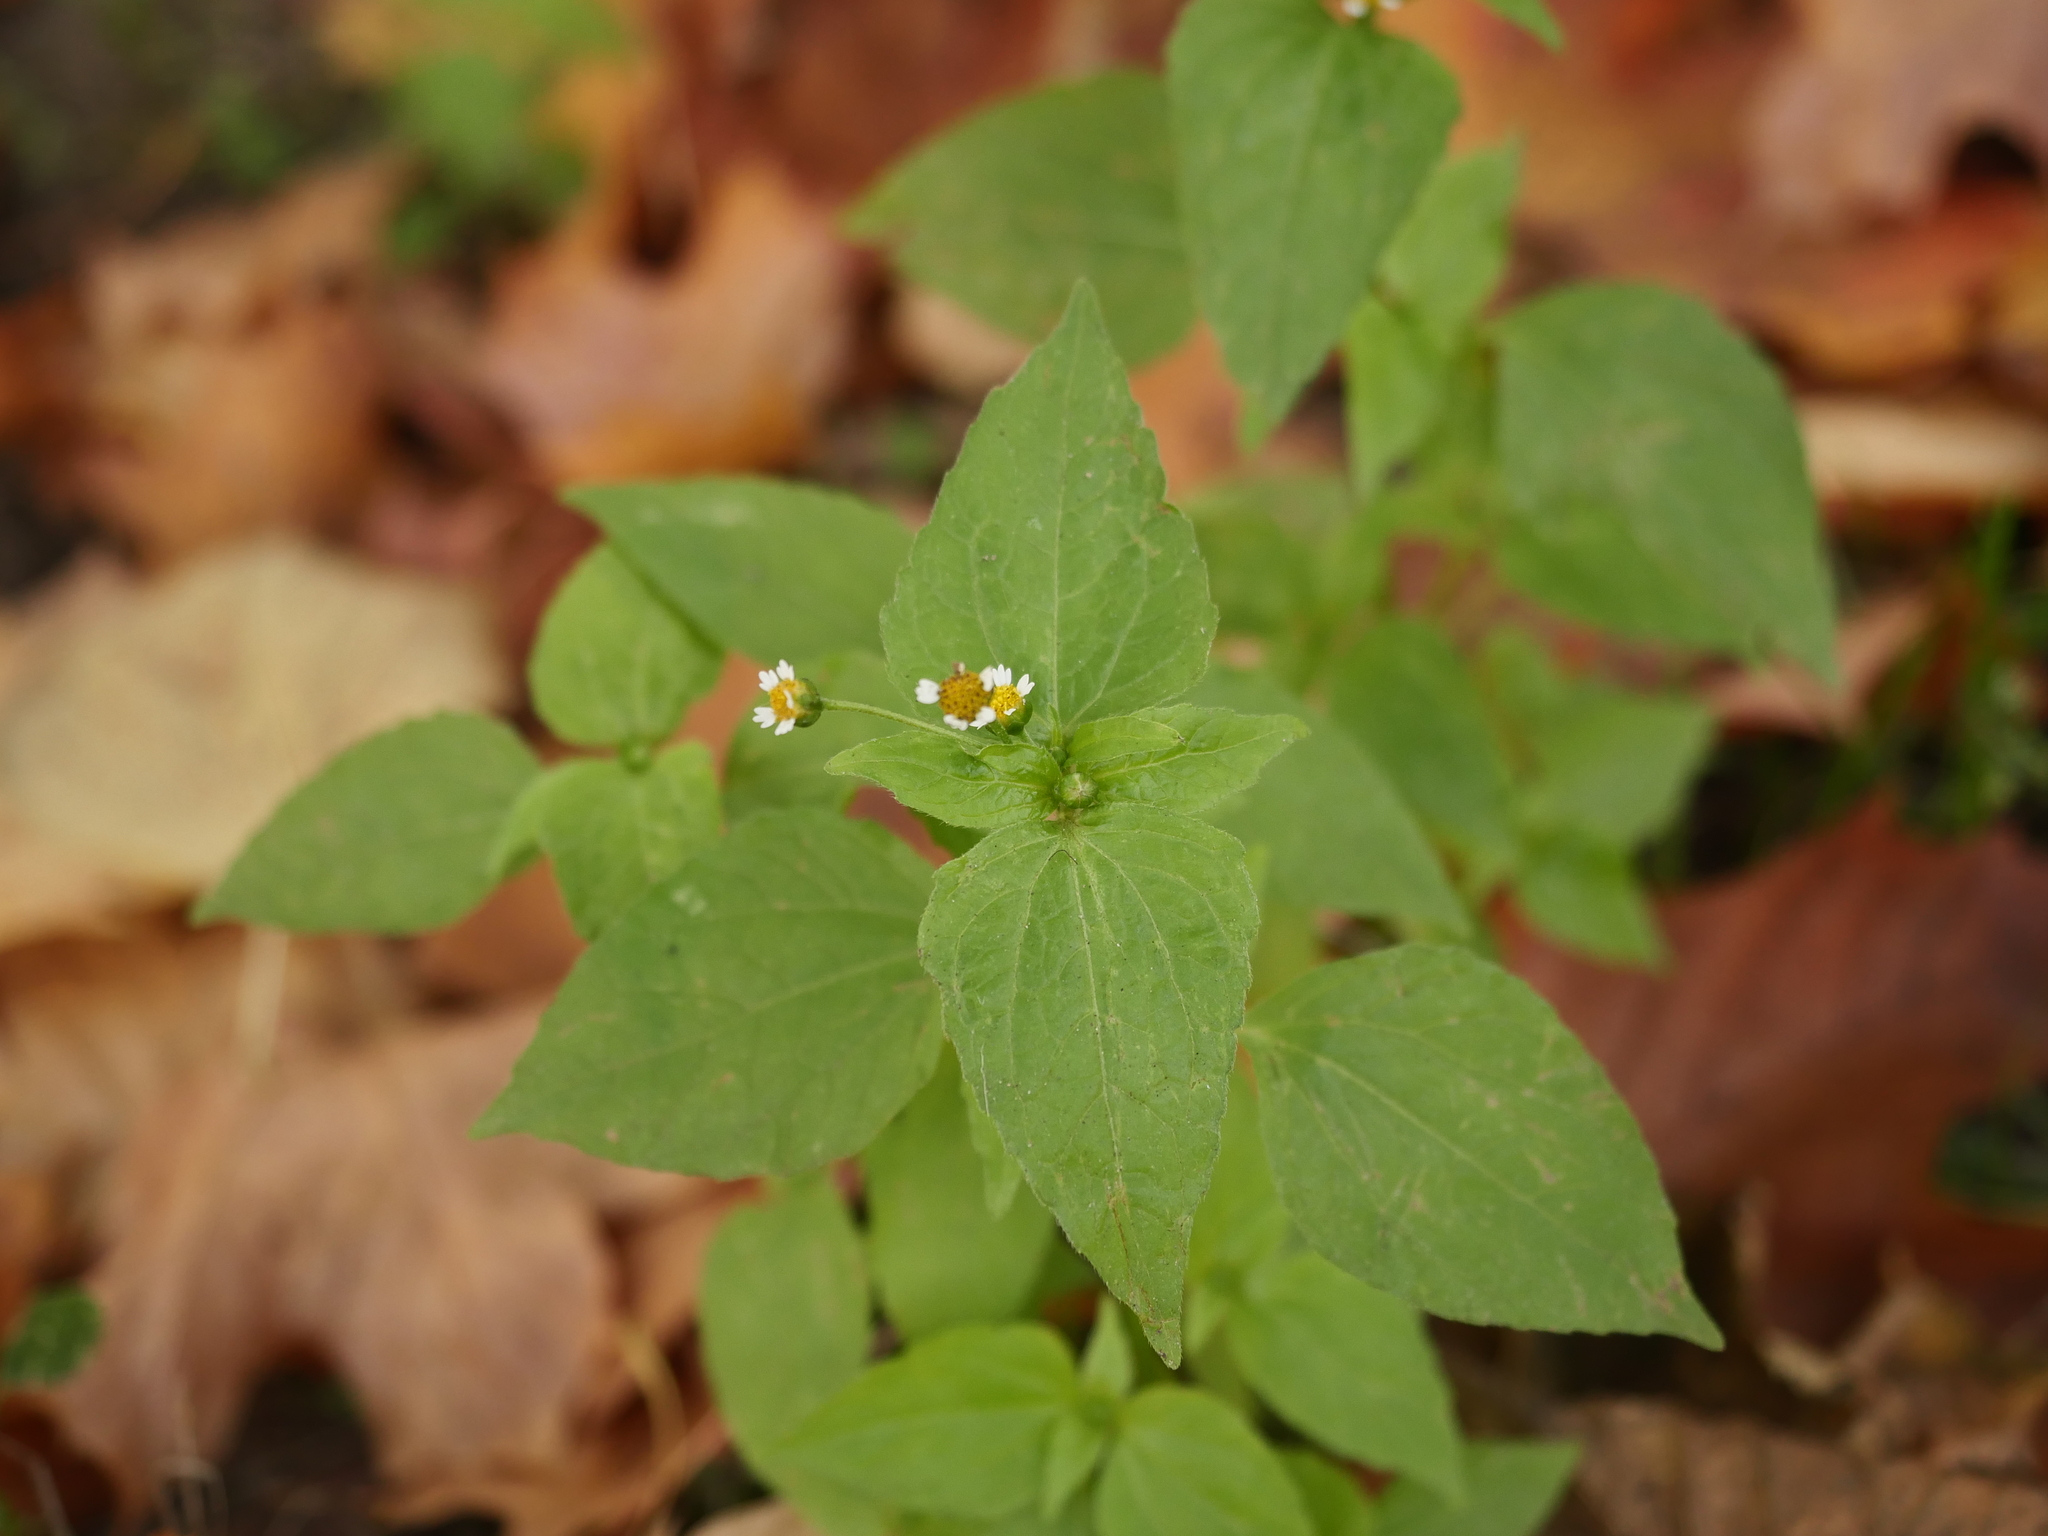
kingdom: Plantae
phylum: Tracheophyta
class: Magnoliopsida
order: Asterales
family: Asteraceae
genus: Galinsoga
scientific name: Galinsoga parviflora
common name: Gallant soldier
